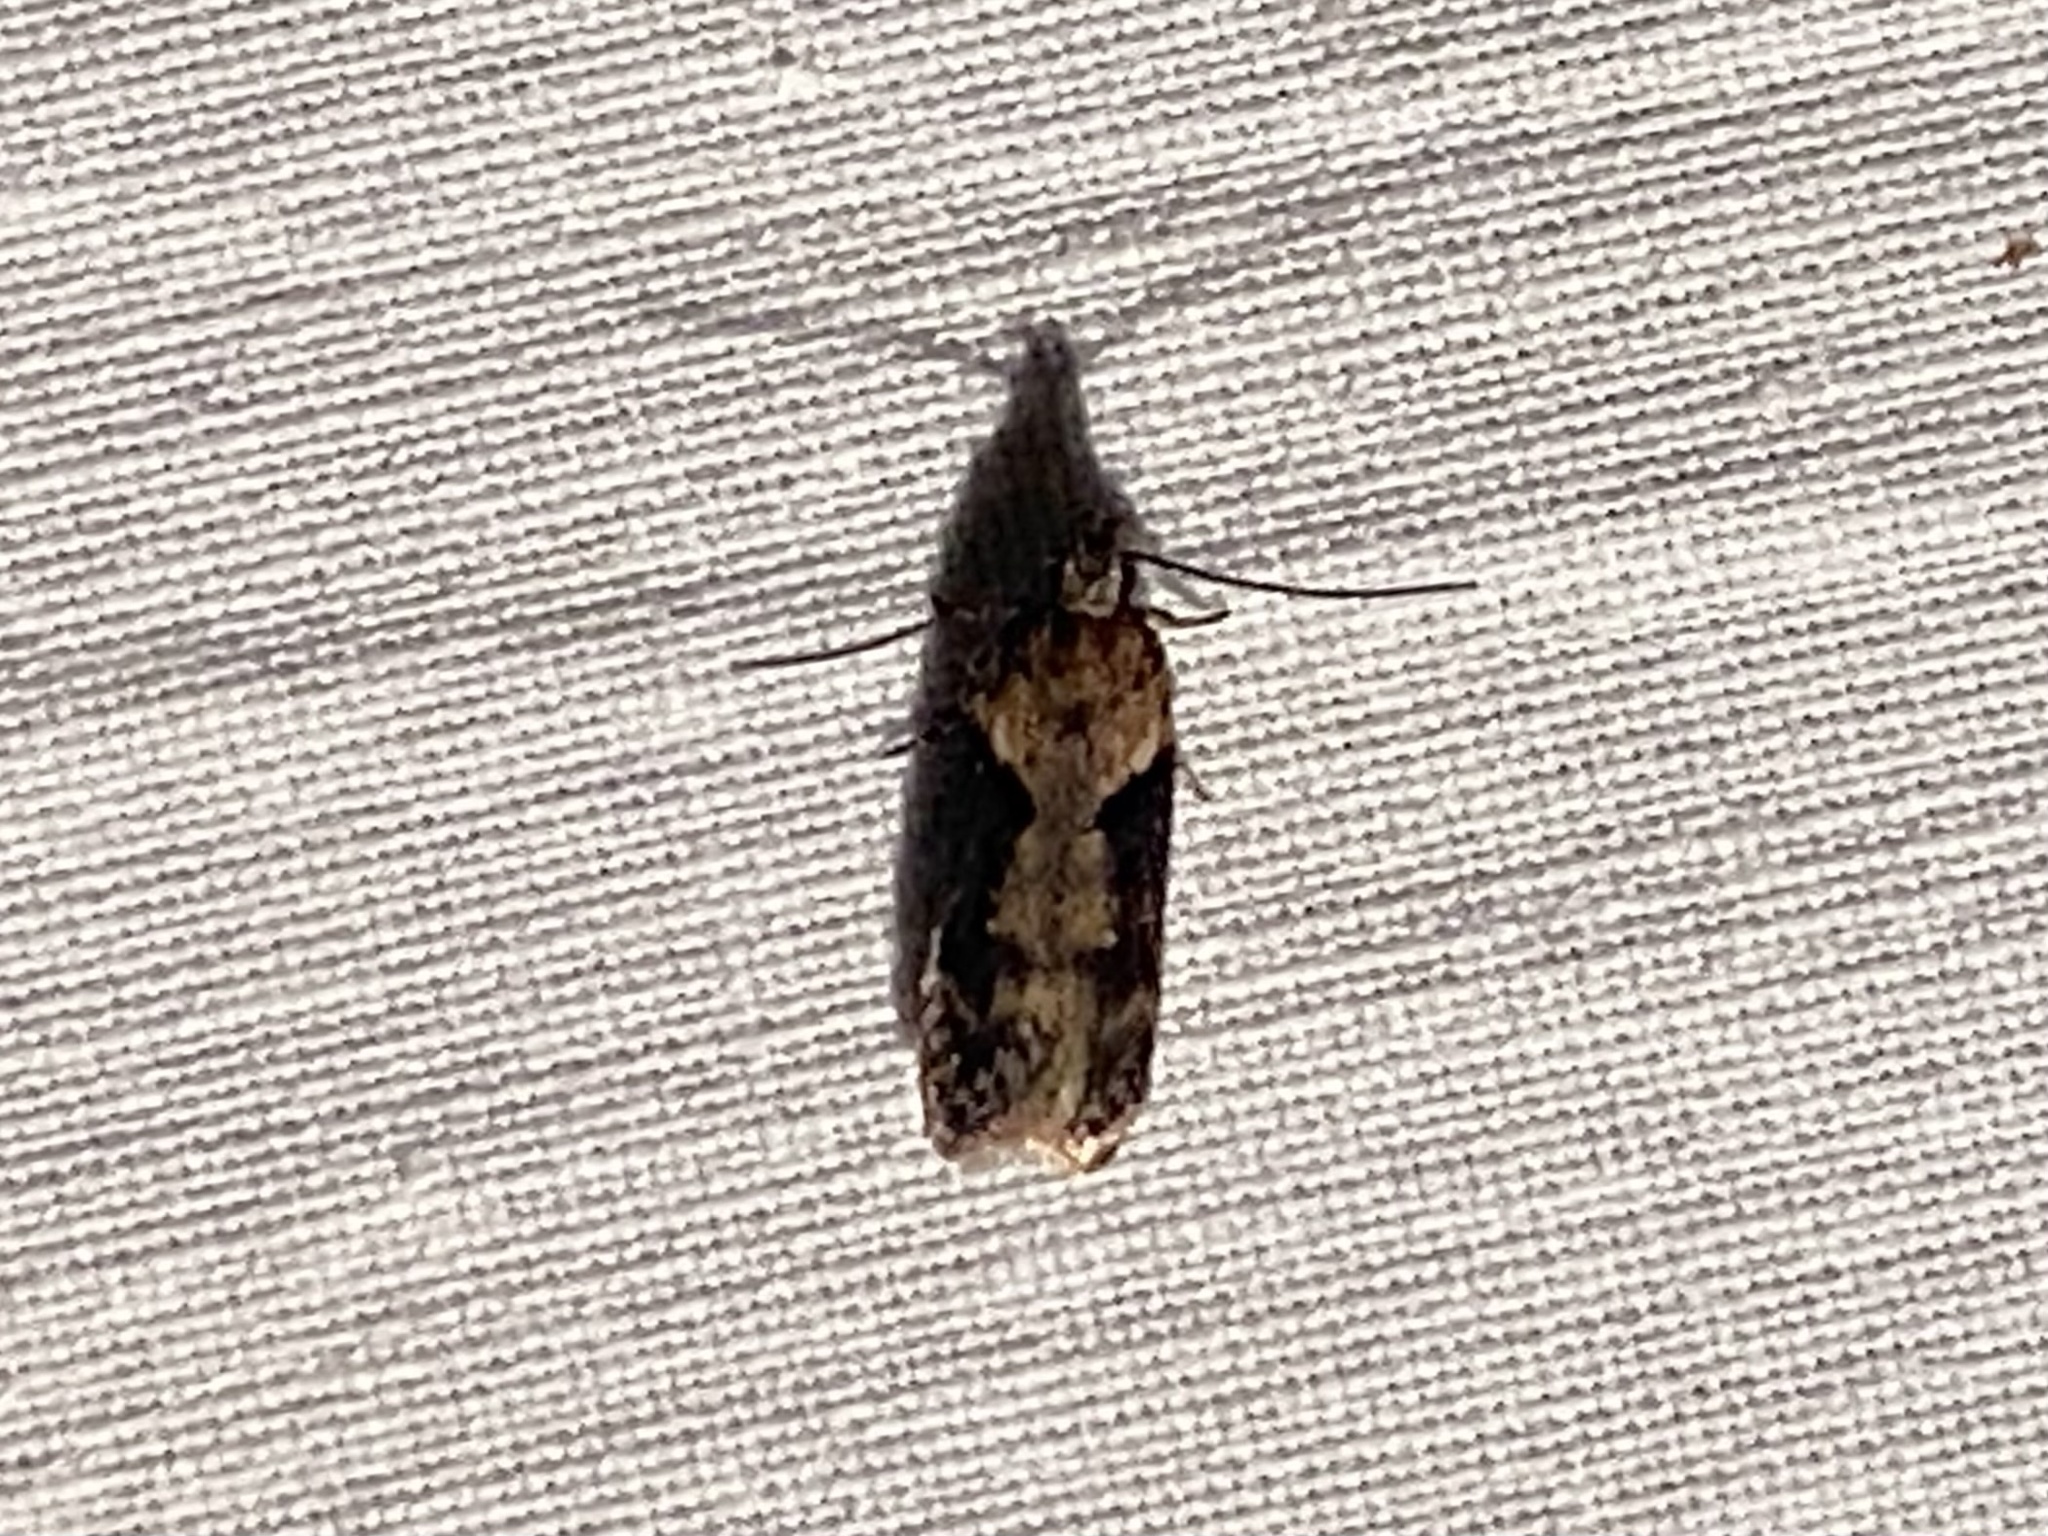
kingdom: Animalia
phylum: Arthropoda
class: Insecta
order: Lepidoptera
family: Gelechiidae
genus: Chionodes
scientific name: Chionodes mediofuscella
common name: Black-smudged chionodes moth
